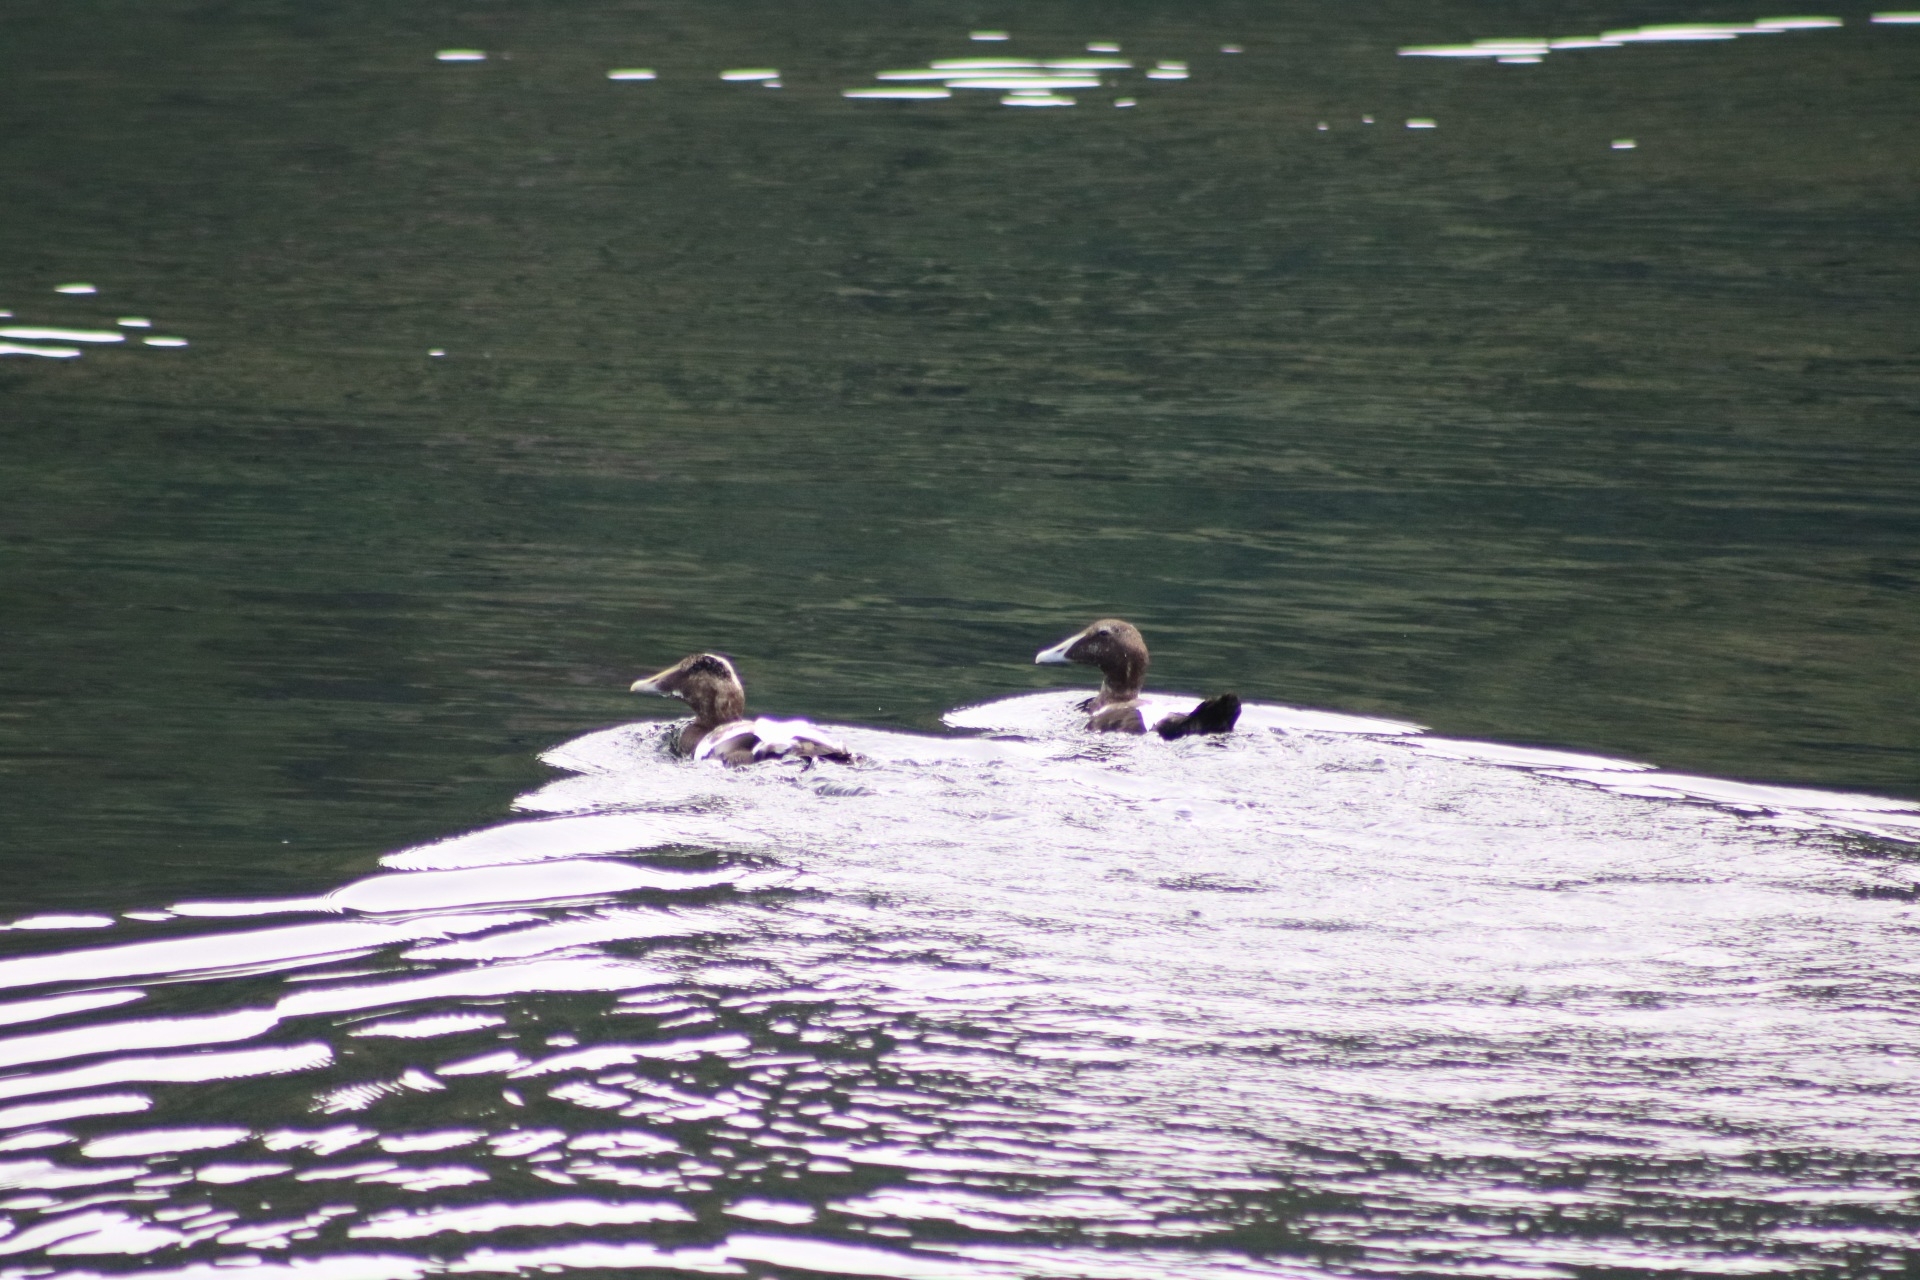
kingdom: Animalia
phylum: Chordata
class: Aves
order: Anseriformes
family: Anatidae
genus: Somateria
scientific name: Somateria mollissima
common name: Common eider
